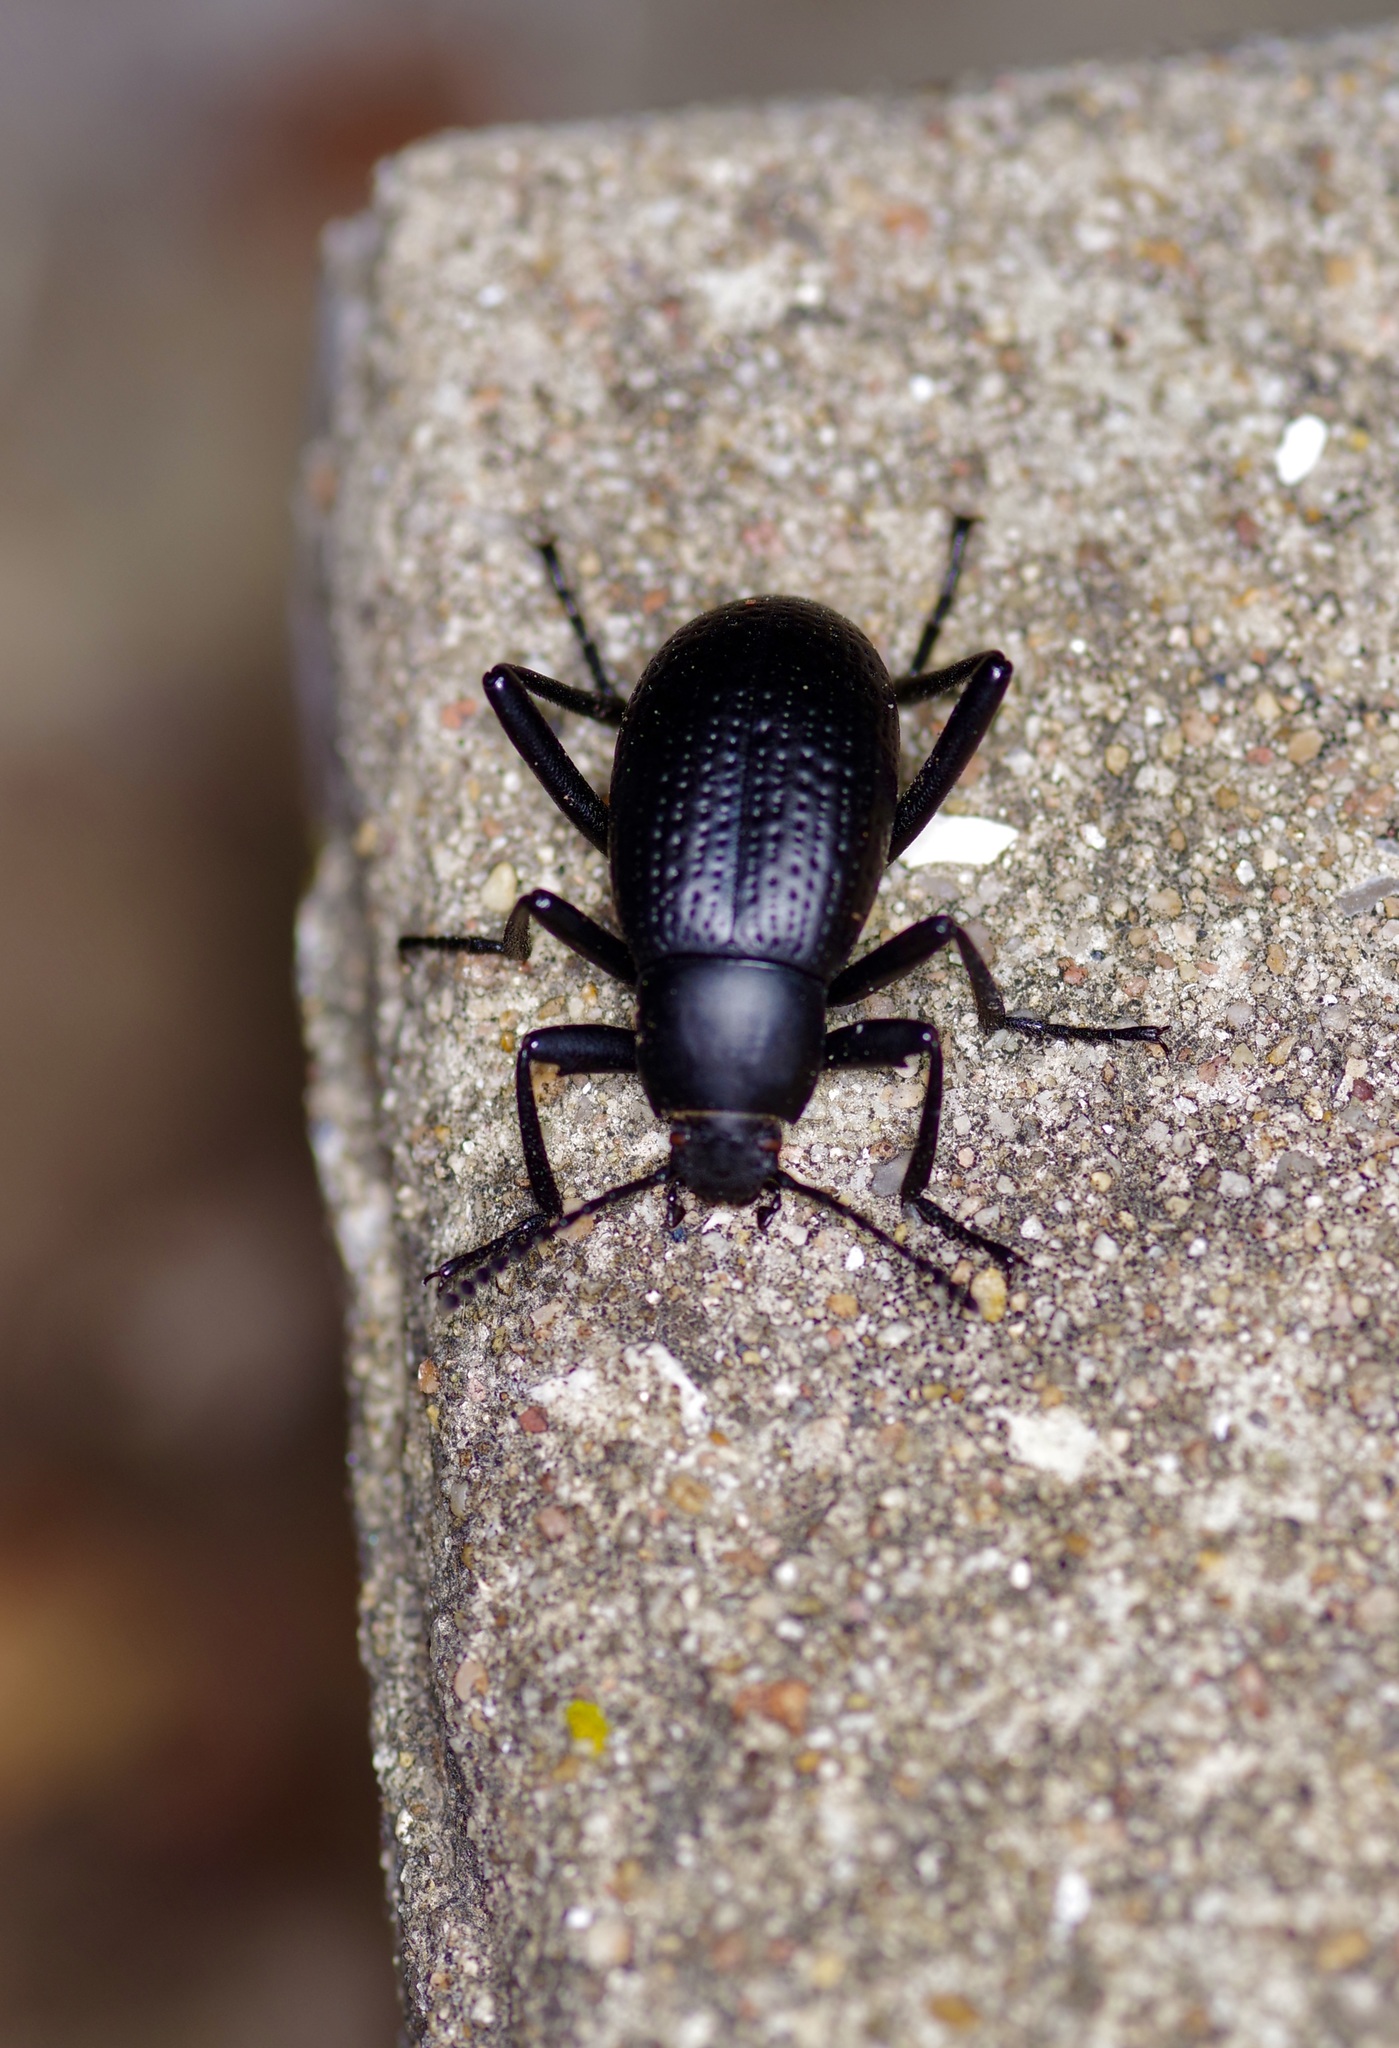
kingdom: Animalia
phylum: Arthropoda
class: Insecta
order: Coleoptera
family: Tenebrionidae
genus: Eleodes
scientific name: Eleodes goryi
